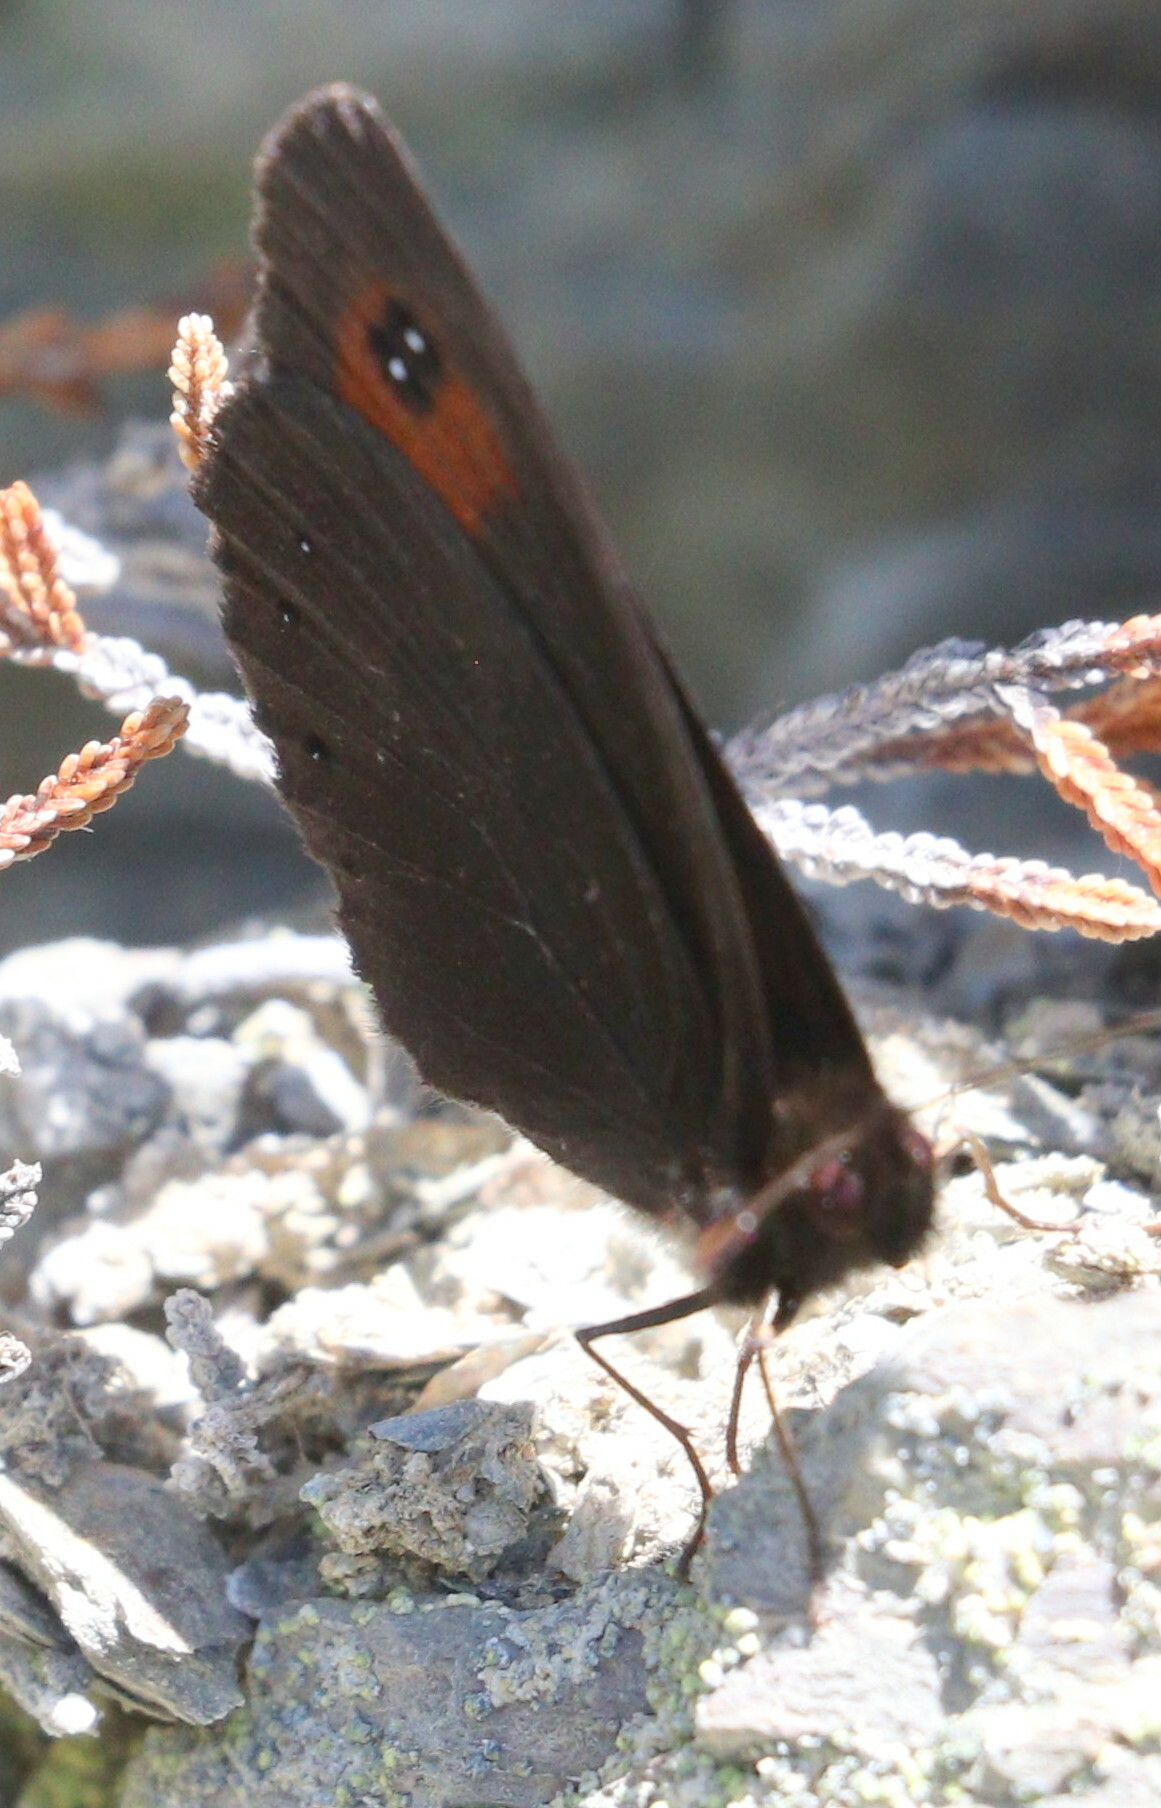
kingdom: Animalia
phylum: Arthropoda
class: Insecta
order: Lepidoptera
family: Nymphalidae
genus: Erebia
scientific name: Erebia meolans
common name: Piedmont ringlet
